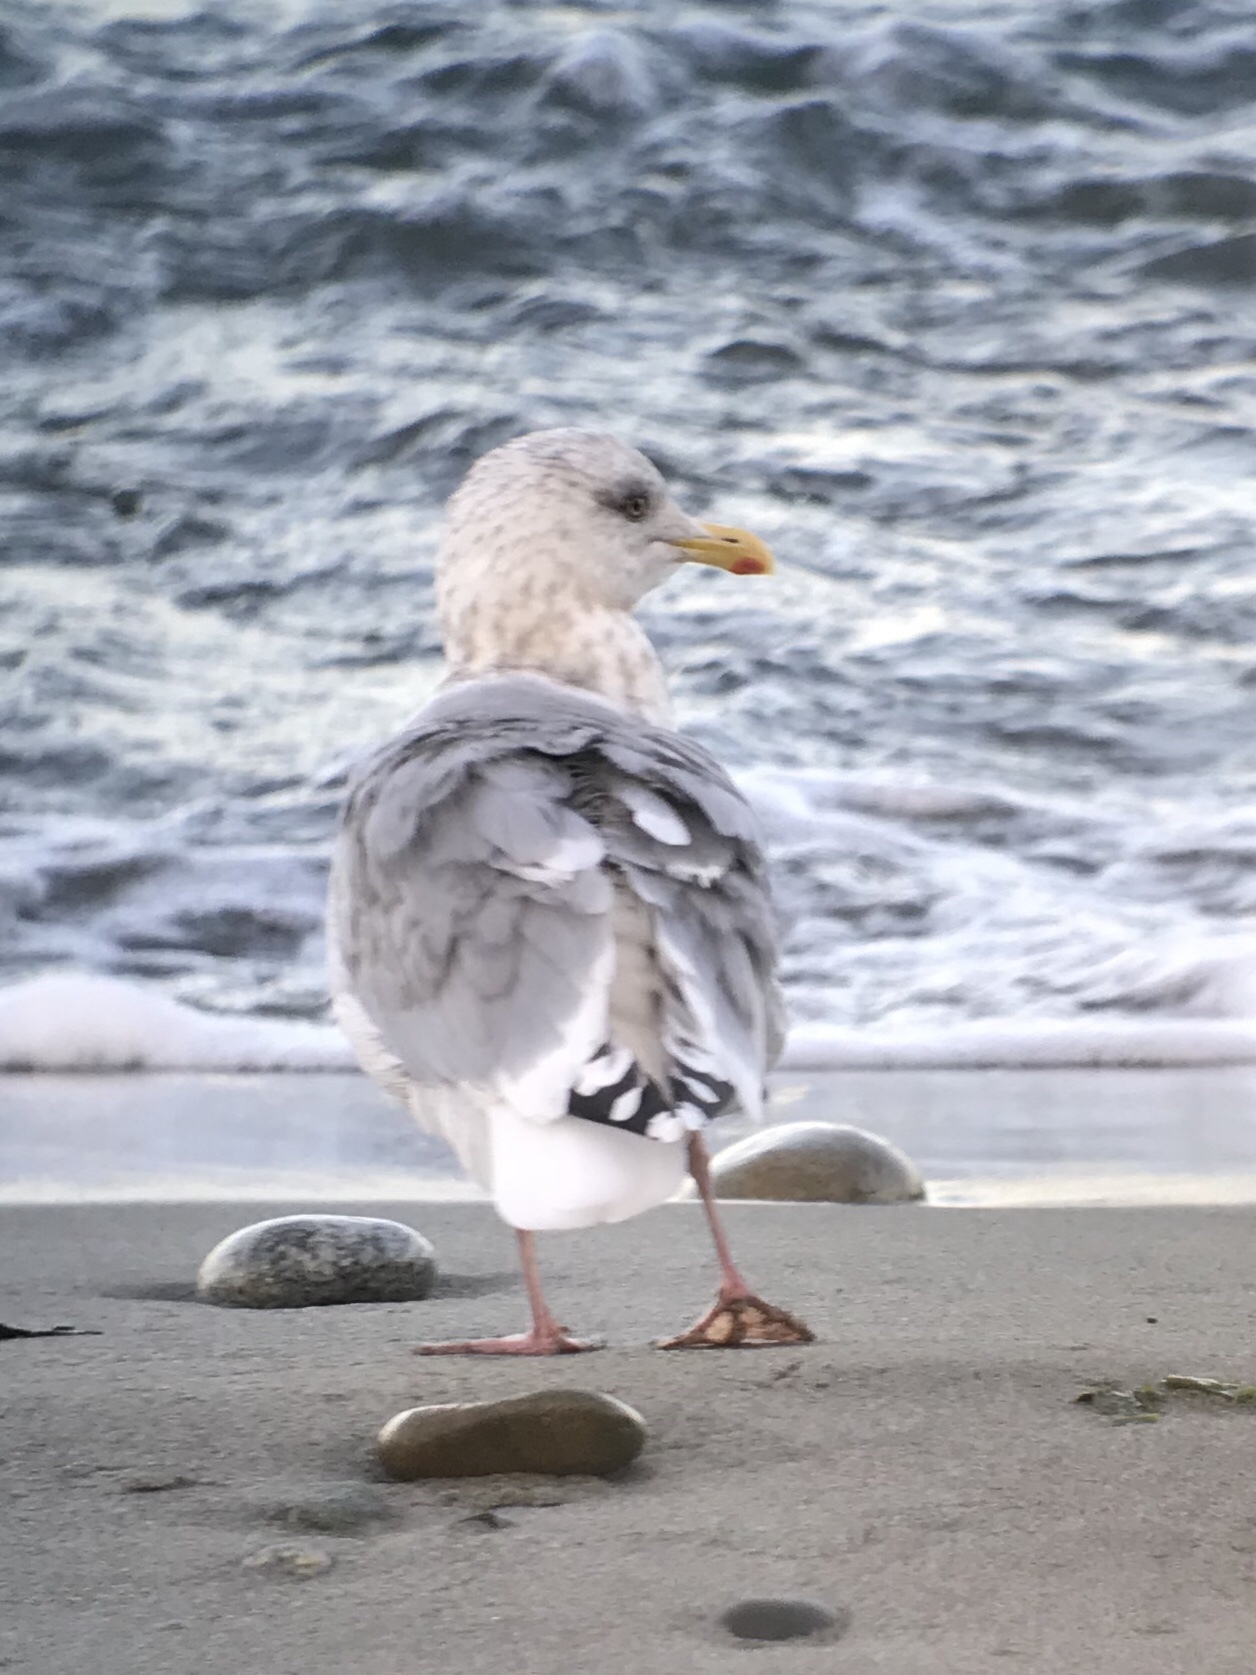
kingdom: Animalia
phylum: Chordata
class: Aves
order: Charadriiformes
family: Laridae
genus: Larus
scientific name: Larus glaucoides
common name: Iceland gull
